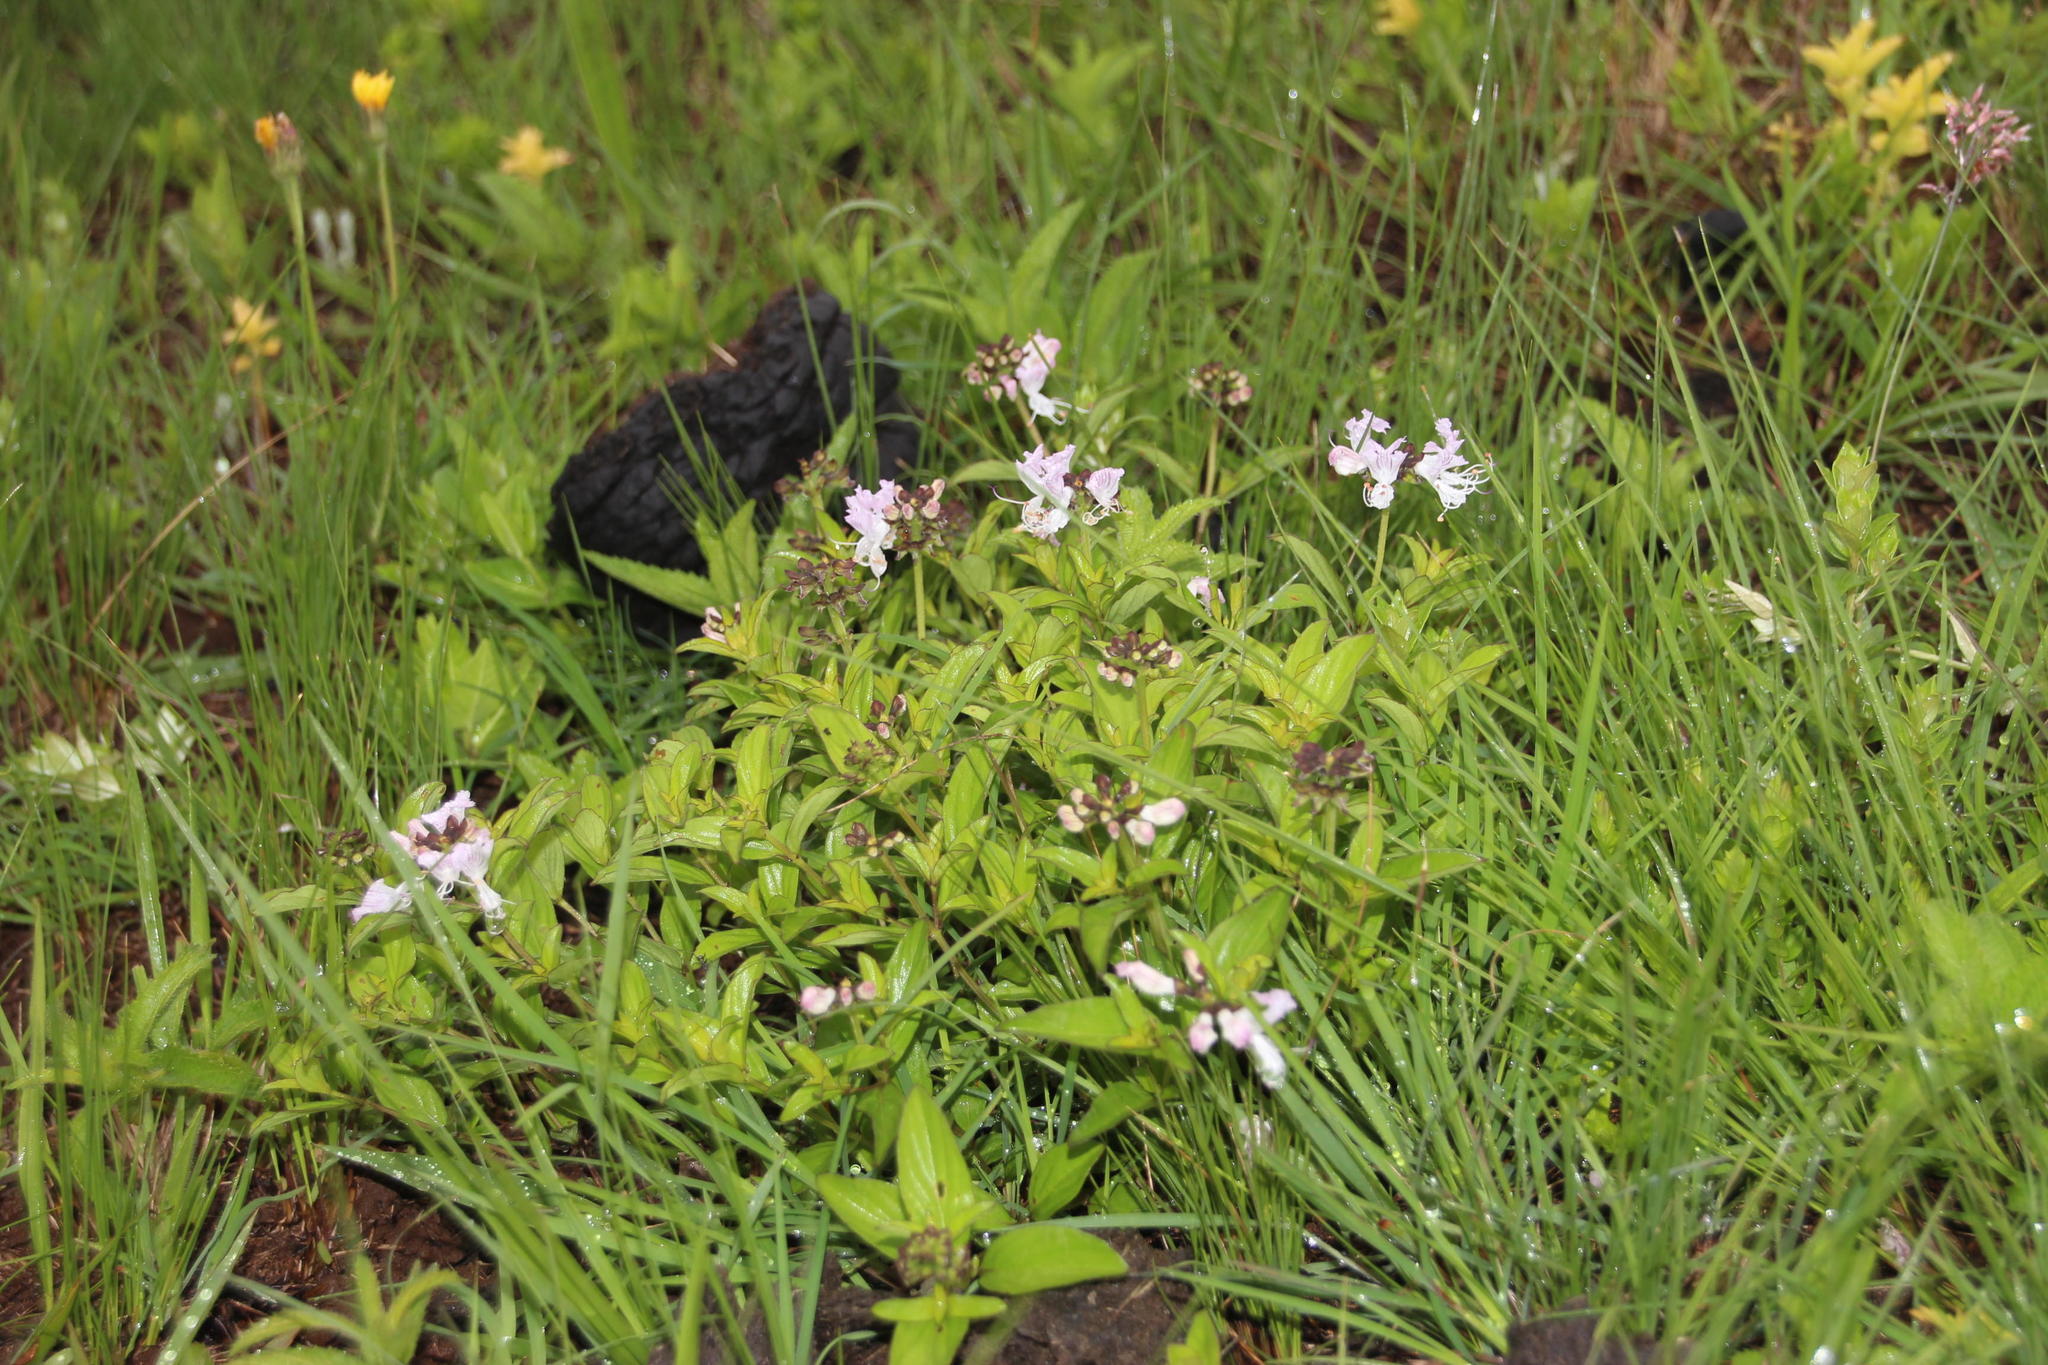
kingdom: Plantae
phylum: Tracheophyta
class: Magnoliopsida
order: Lamiales
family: Lamiaceae
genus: Ocimum
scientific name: Ocimum obovatum
